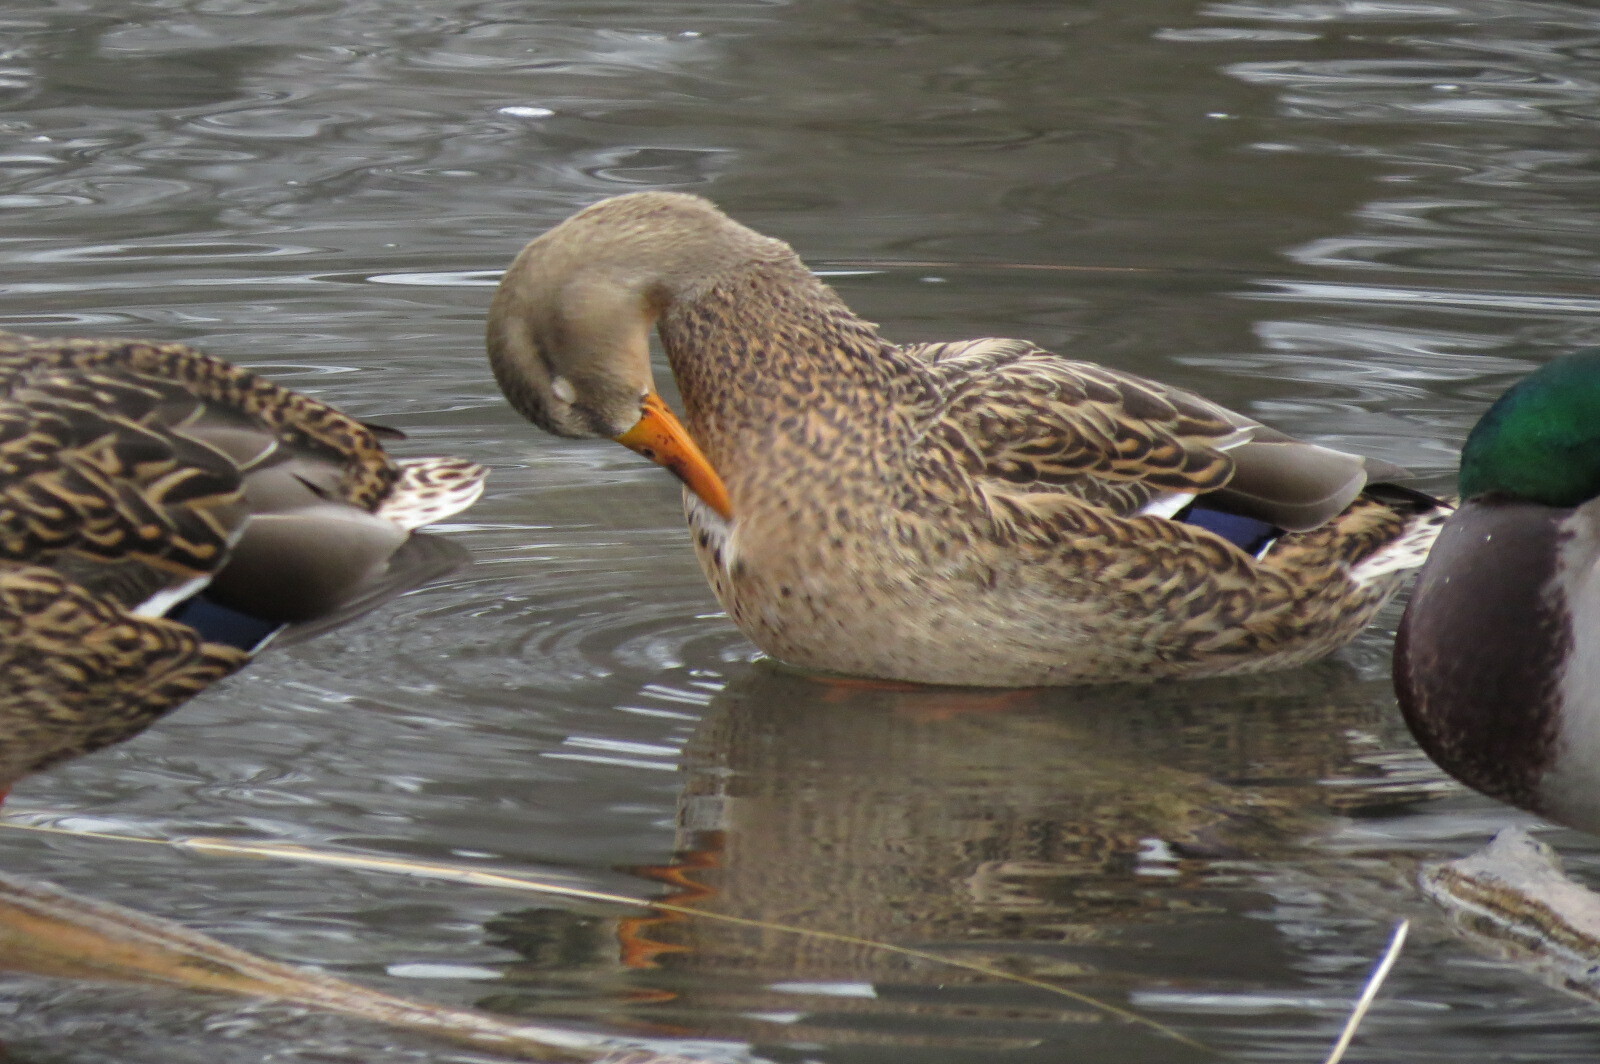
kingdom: Animalia
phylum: Chordata
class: Aves
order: Anseriformes
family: Anatidae
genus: Anas
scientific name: Anas platyrhynchos
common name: Mallard
